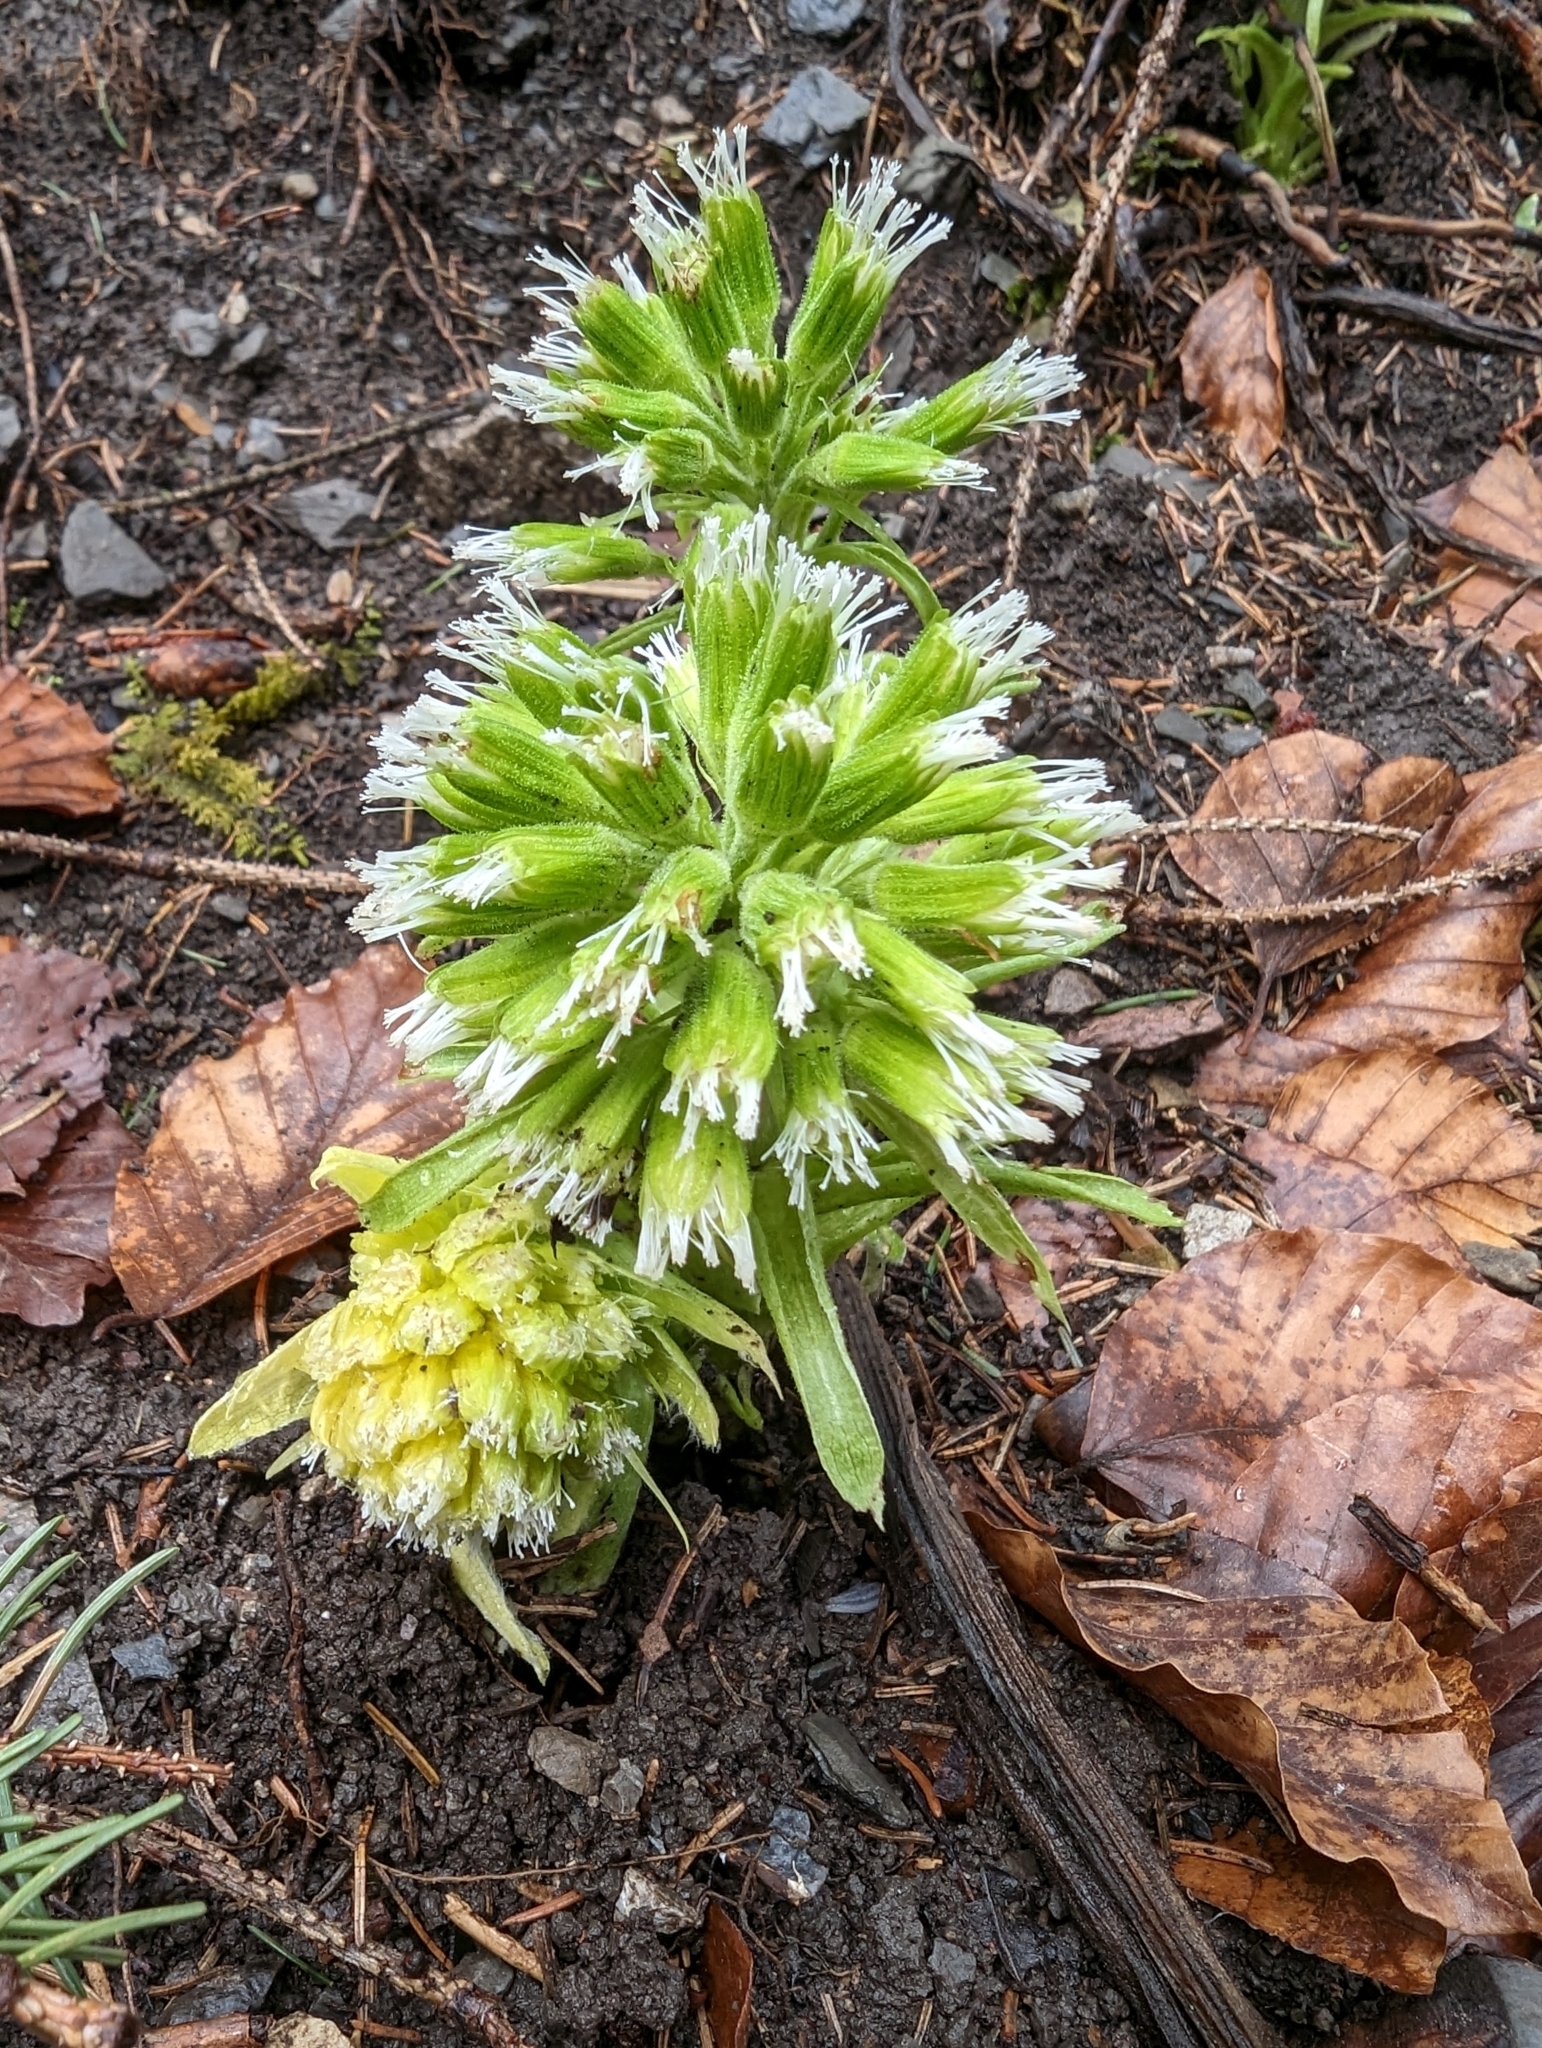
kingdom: Plantae
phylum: Tracheophyta
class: Magnoliopsida
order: Asterales
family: Asteraceae
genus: Petasites
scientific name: Petasites albus
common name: White butterbur
